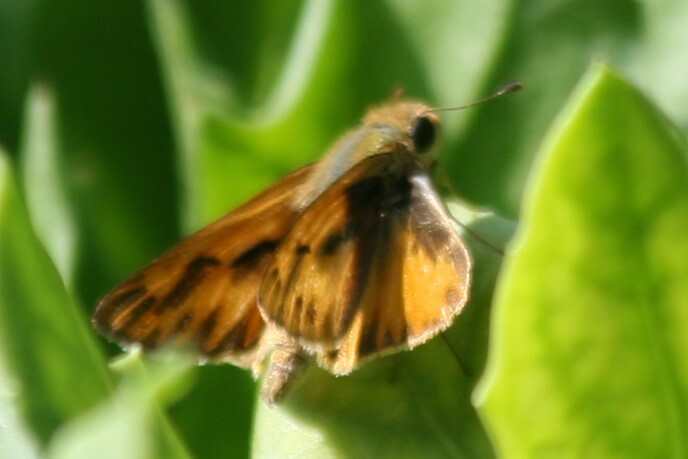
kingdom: Animalia
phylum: Arthropoda
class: Insecta
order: Lepidoptera
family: Hesperiidae
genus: Hylephila
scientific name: Hylephila phyleus
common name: Fiery skipper
